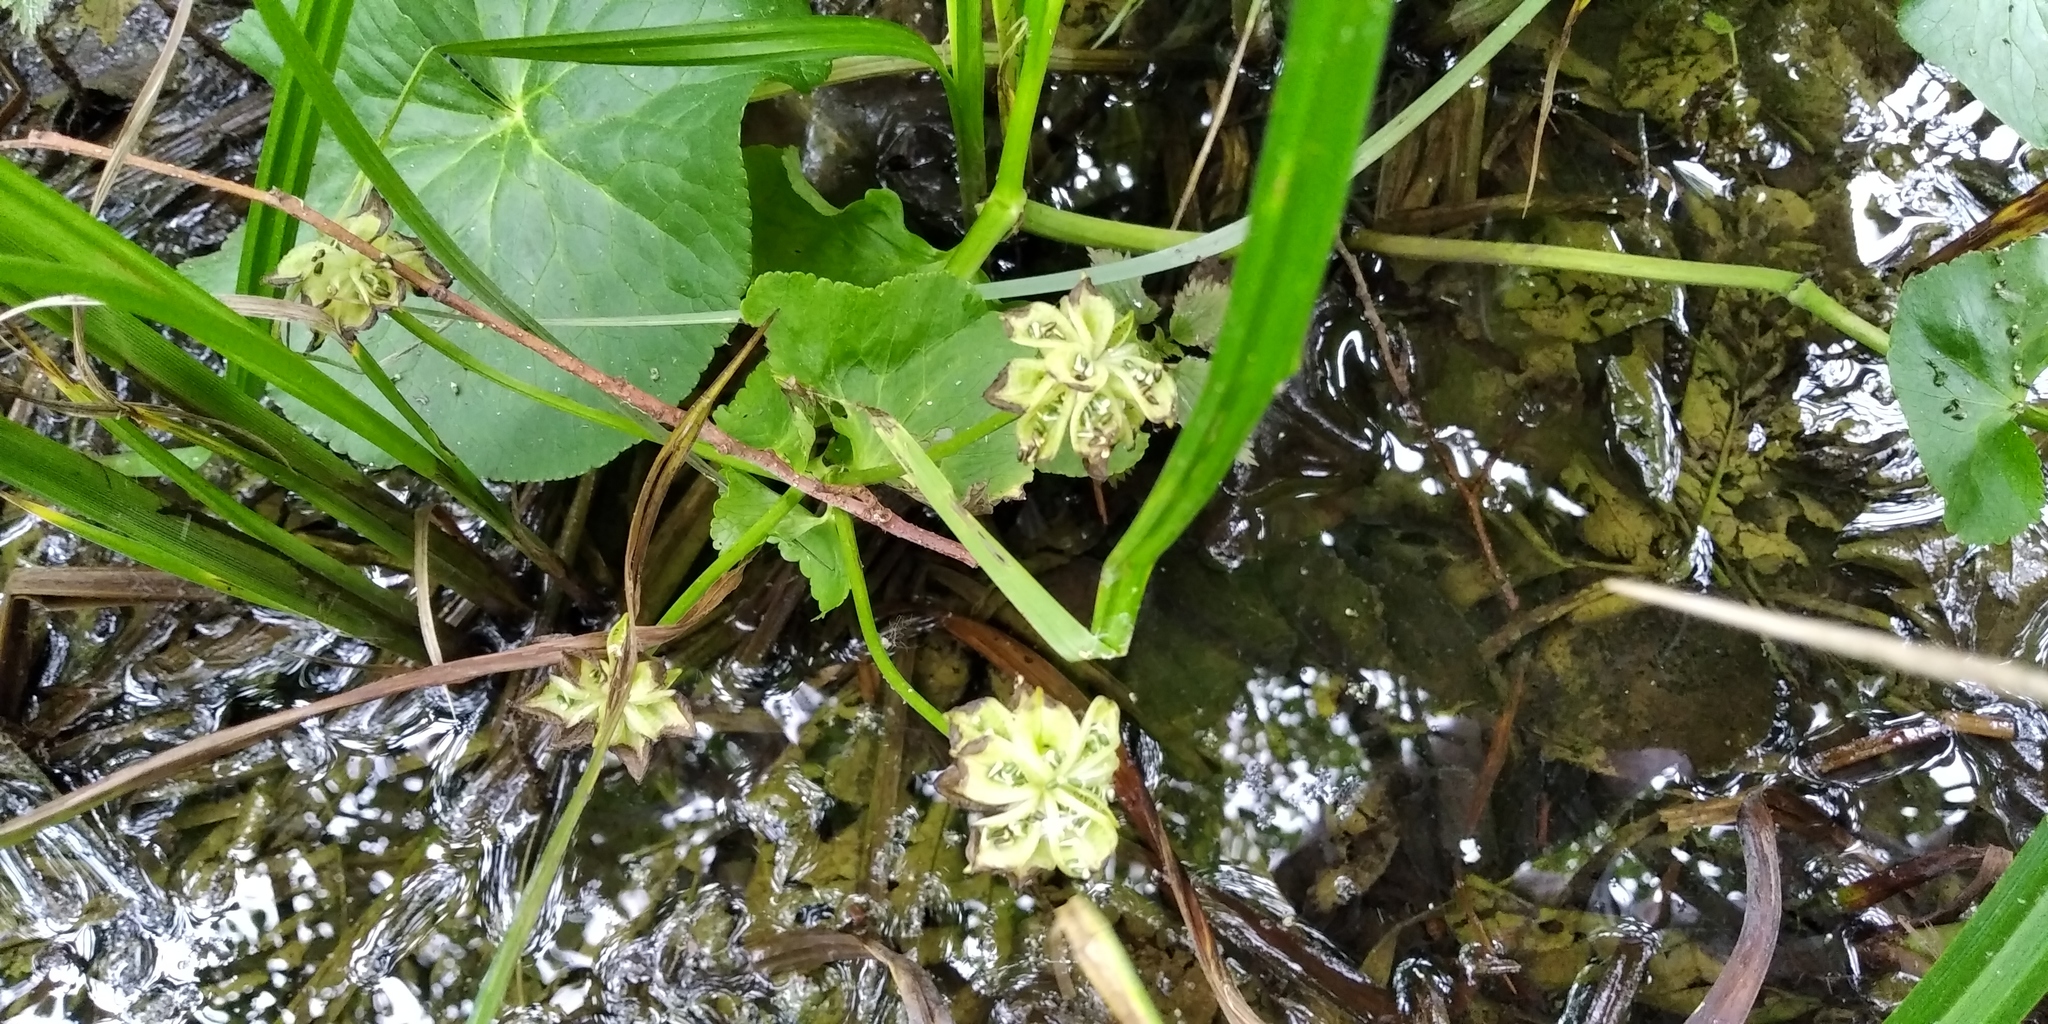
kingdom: Plantae
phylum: Tracheophyta
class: Magnoliopsida
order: Ranunculales
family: Ranunculaceae
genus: Caltha
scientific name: Caltha palustris
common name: Marsh marigold
